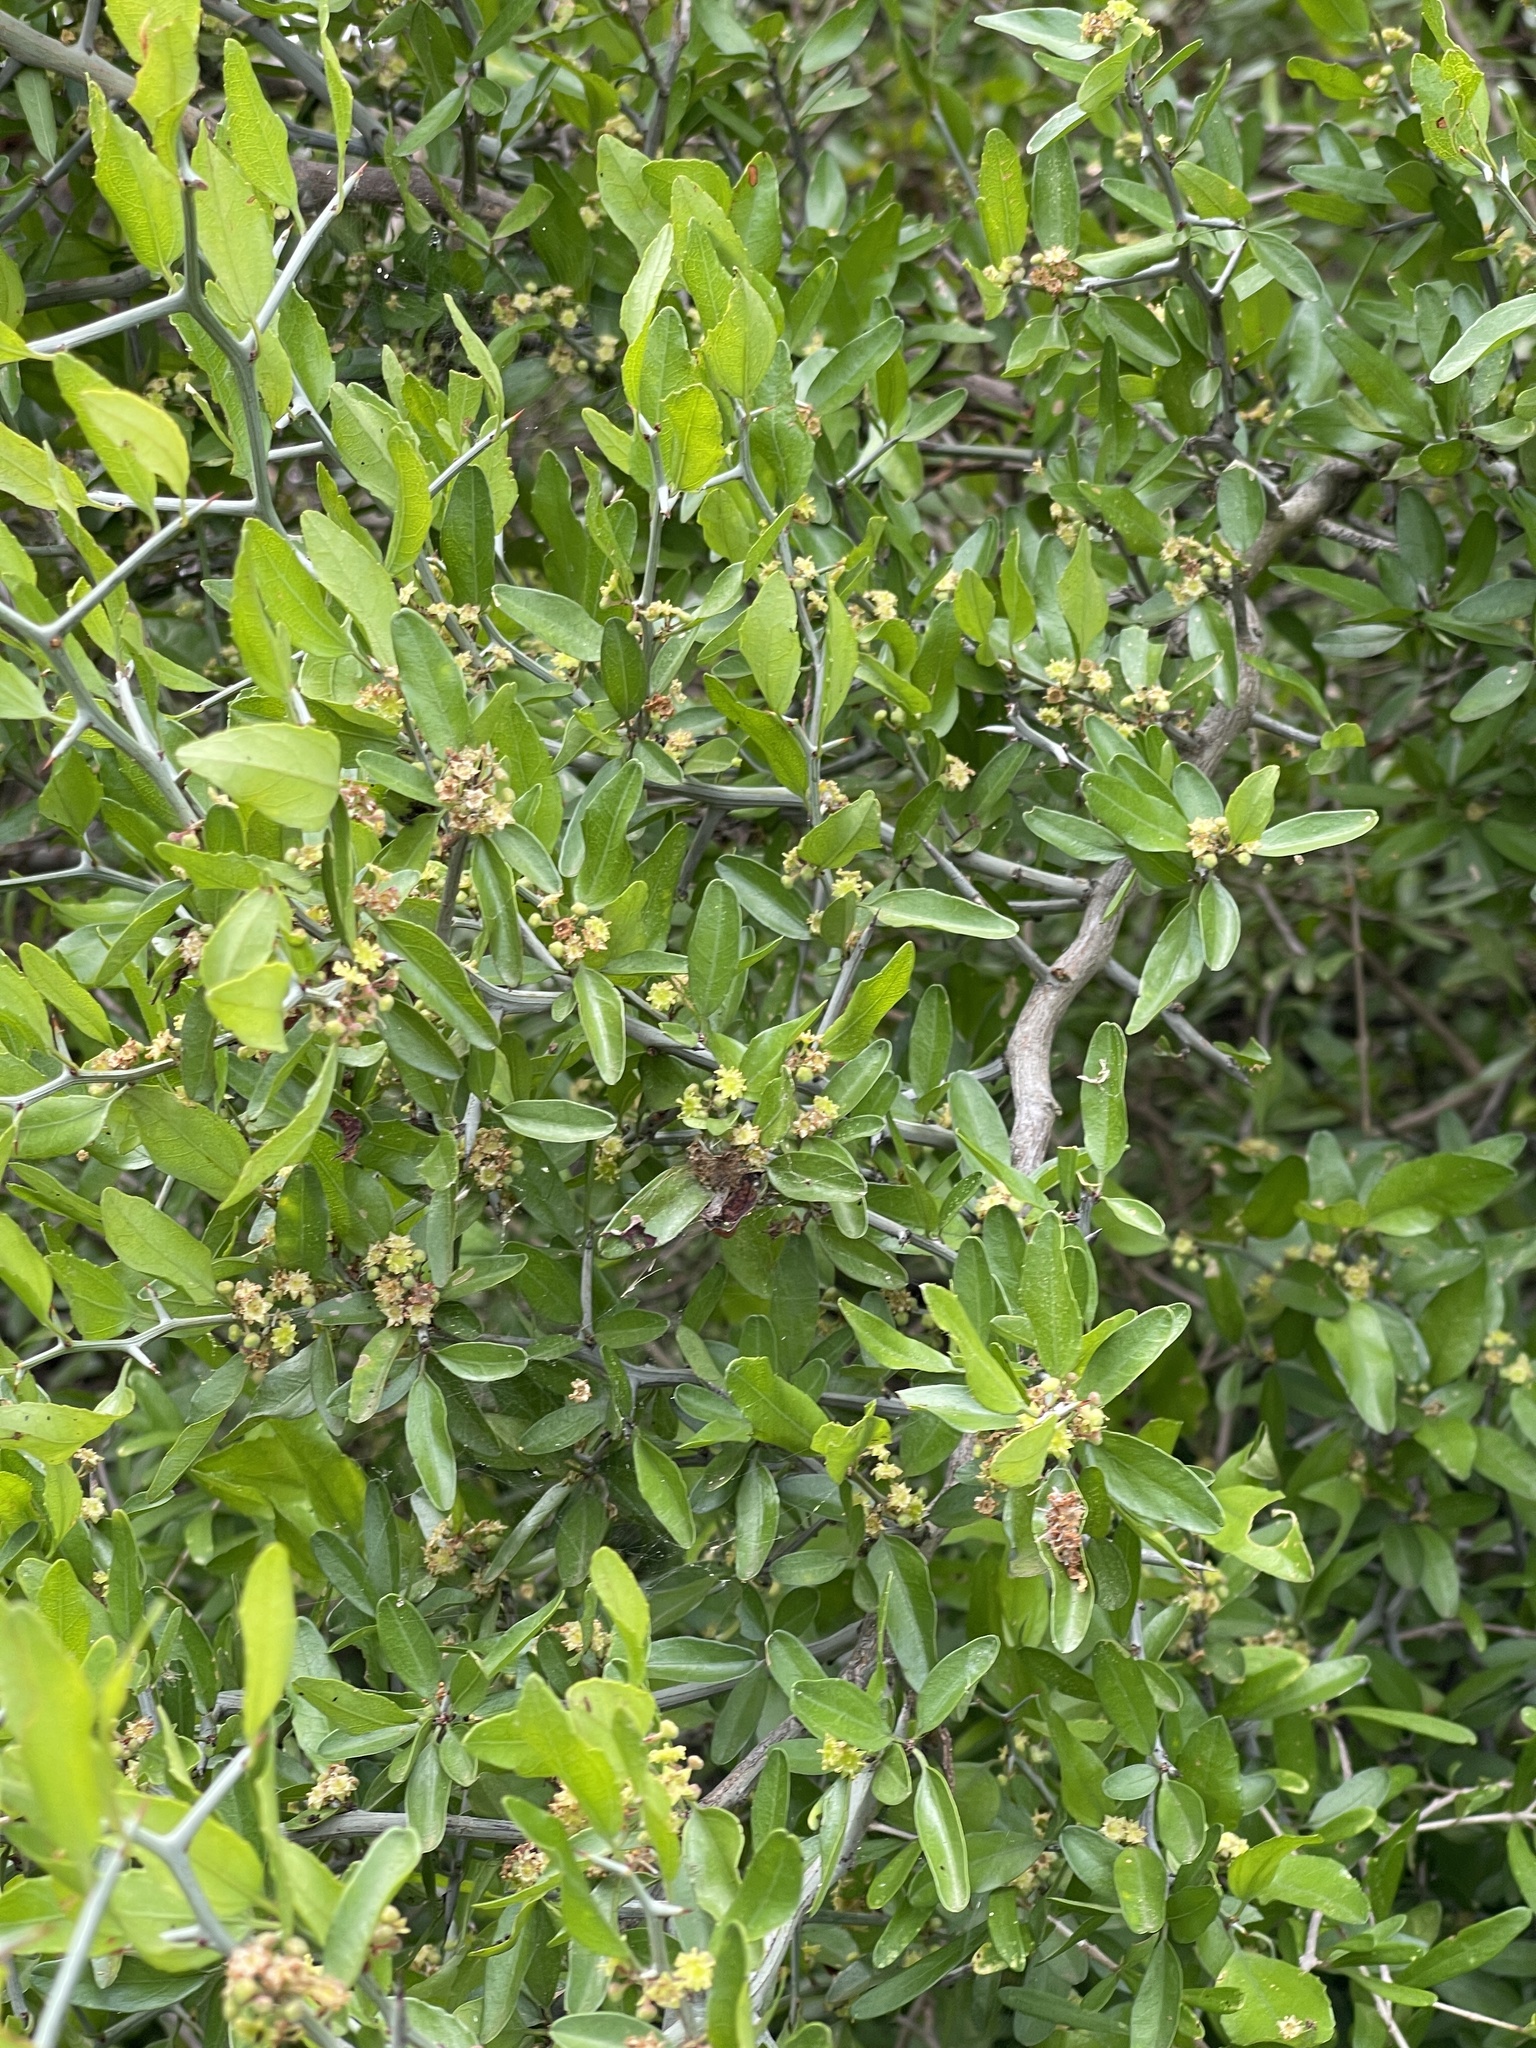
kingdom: Plantae
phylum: Tracheophyta
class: Magnoliopsida
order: Rosales
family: Rhamnaceae
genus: Sarcomphalus
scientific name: Sarcomphalus obtusifolius
